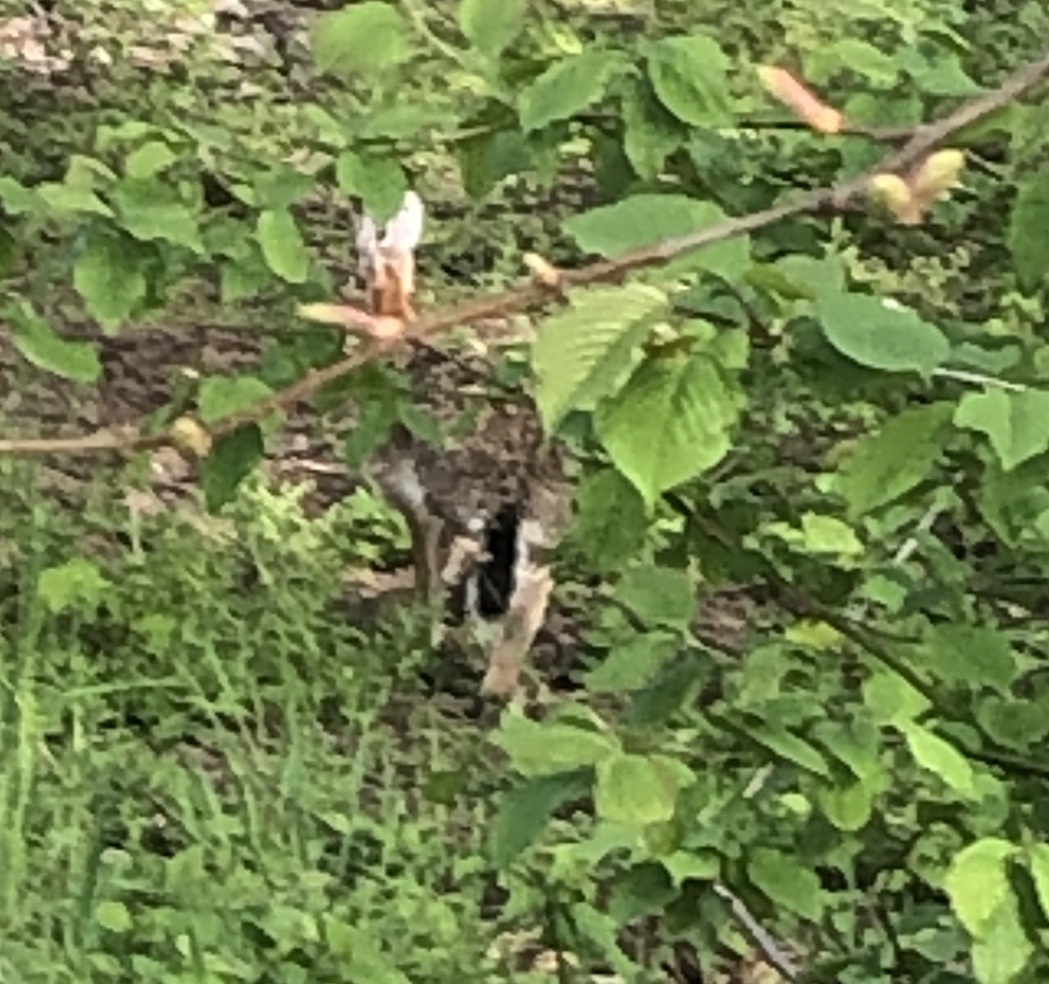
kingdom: Animalia
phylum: Chordata
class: Mammalia
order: Lagomorpha
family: Leporidae
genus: Lepus
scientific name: Lepus europaeus
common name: European hare
